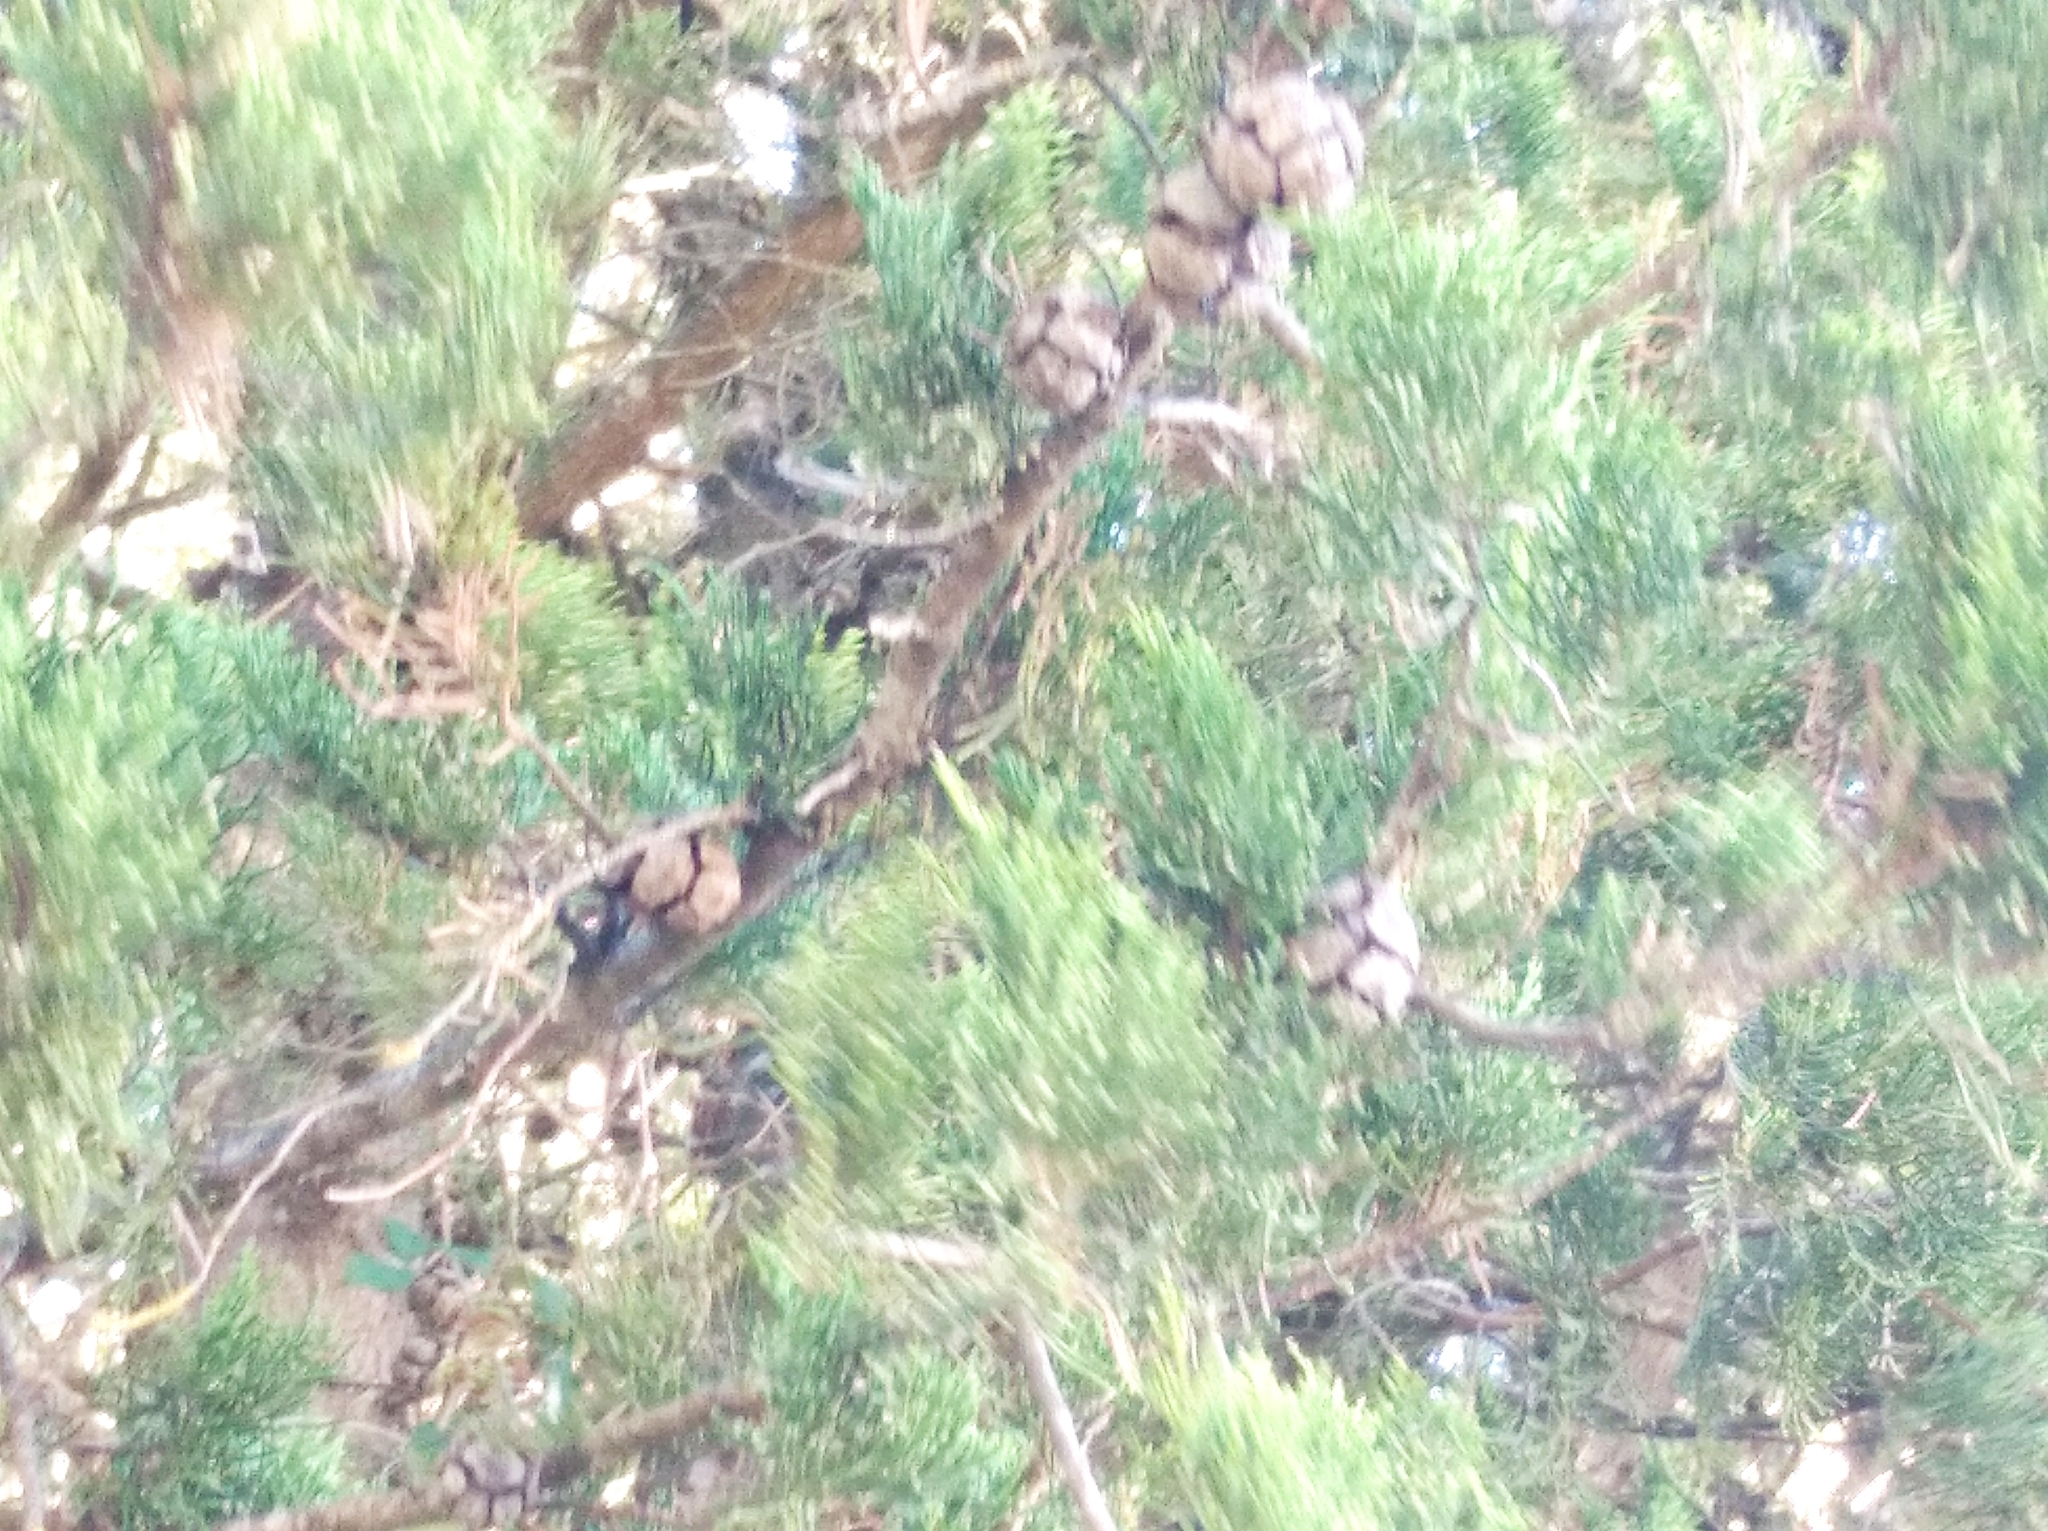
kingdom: Plantae
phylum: Tracheophyta
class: Pinopsida
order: Pinales
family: Cupressaceae
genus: Cupressus
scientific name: Cupressus sempervirens
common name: Italian cypress
